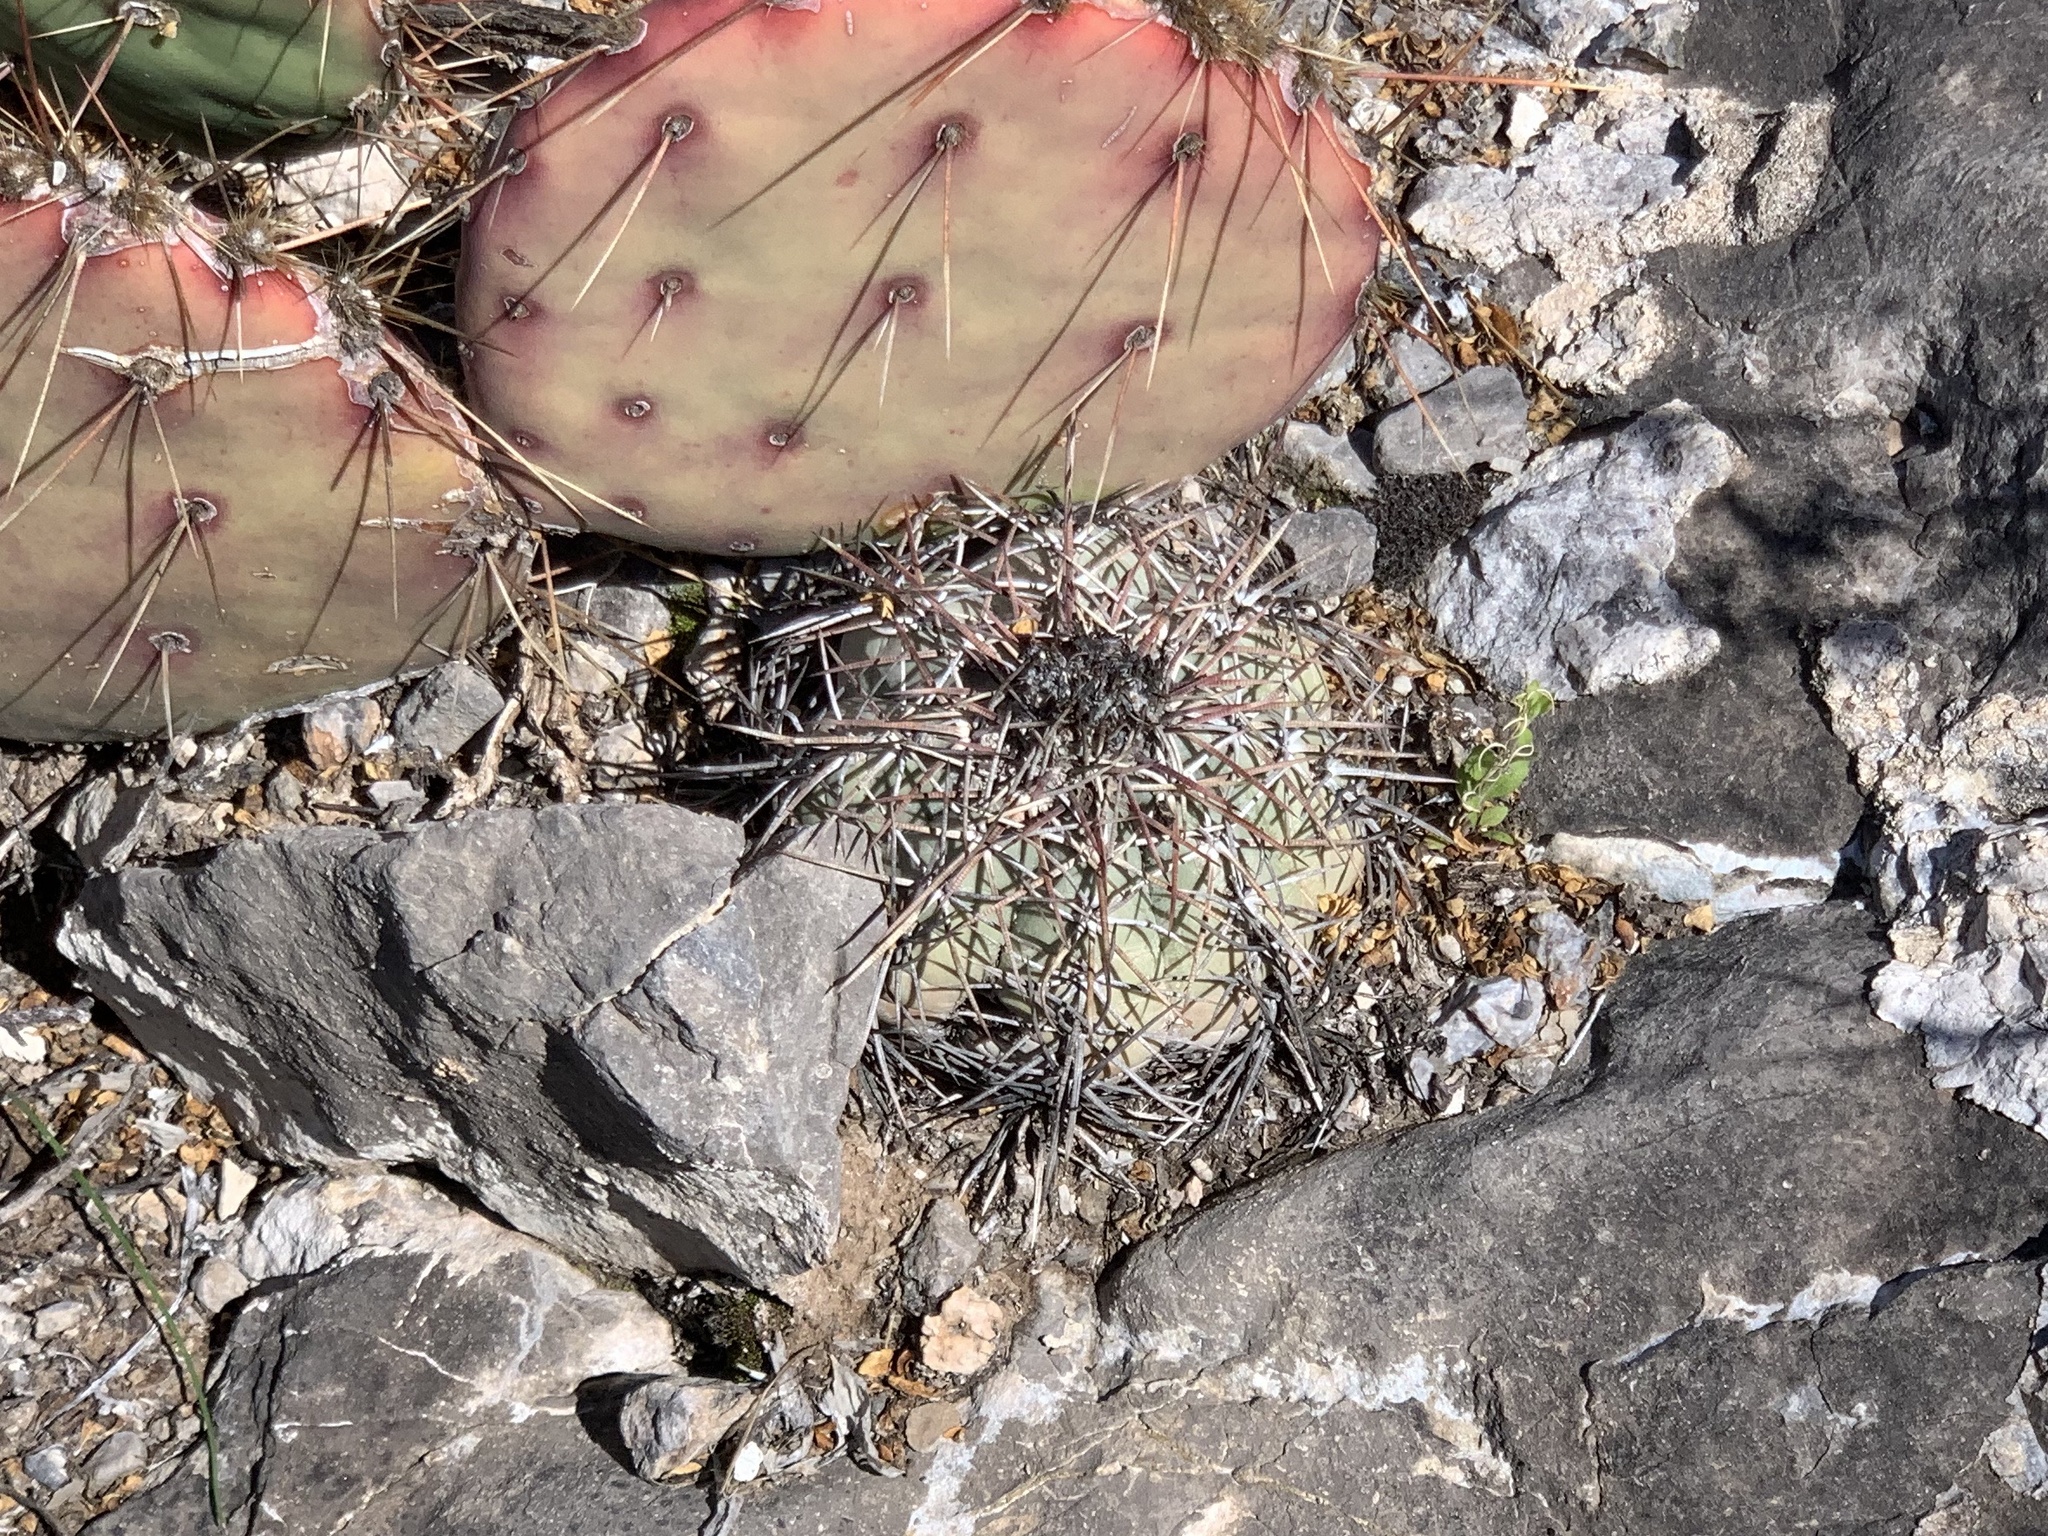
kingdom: Plantae
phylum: Tracheophyta
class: Magnoliopsida
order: Caryophyllales
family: Cactaceae
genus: Echinocactus
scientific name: Echinocactus horizonthalonius
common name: Devilshead
